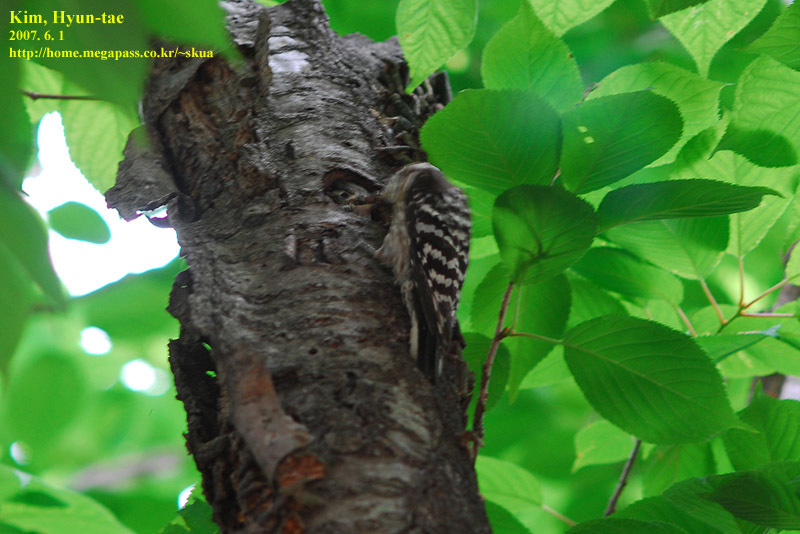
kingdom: Animalia
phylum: Chordata
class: Aves
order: Piciformes
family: Picidae
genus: Yungipicus
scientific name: Yungipicus kizuki
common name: Japanese pygmy woodpecker
